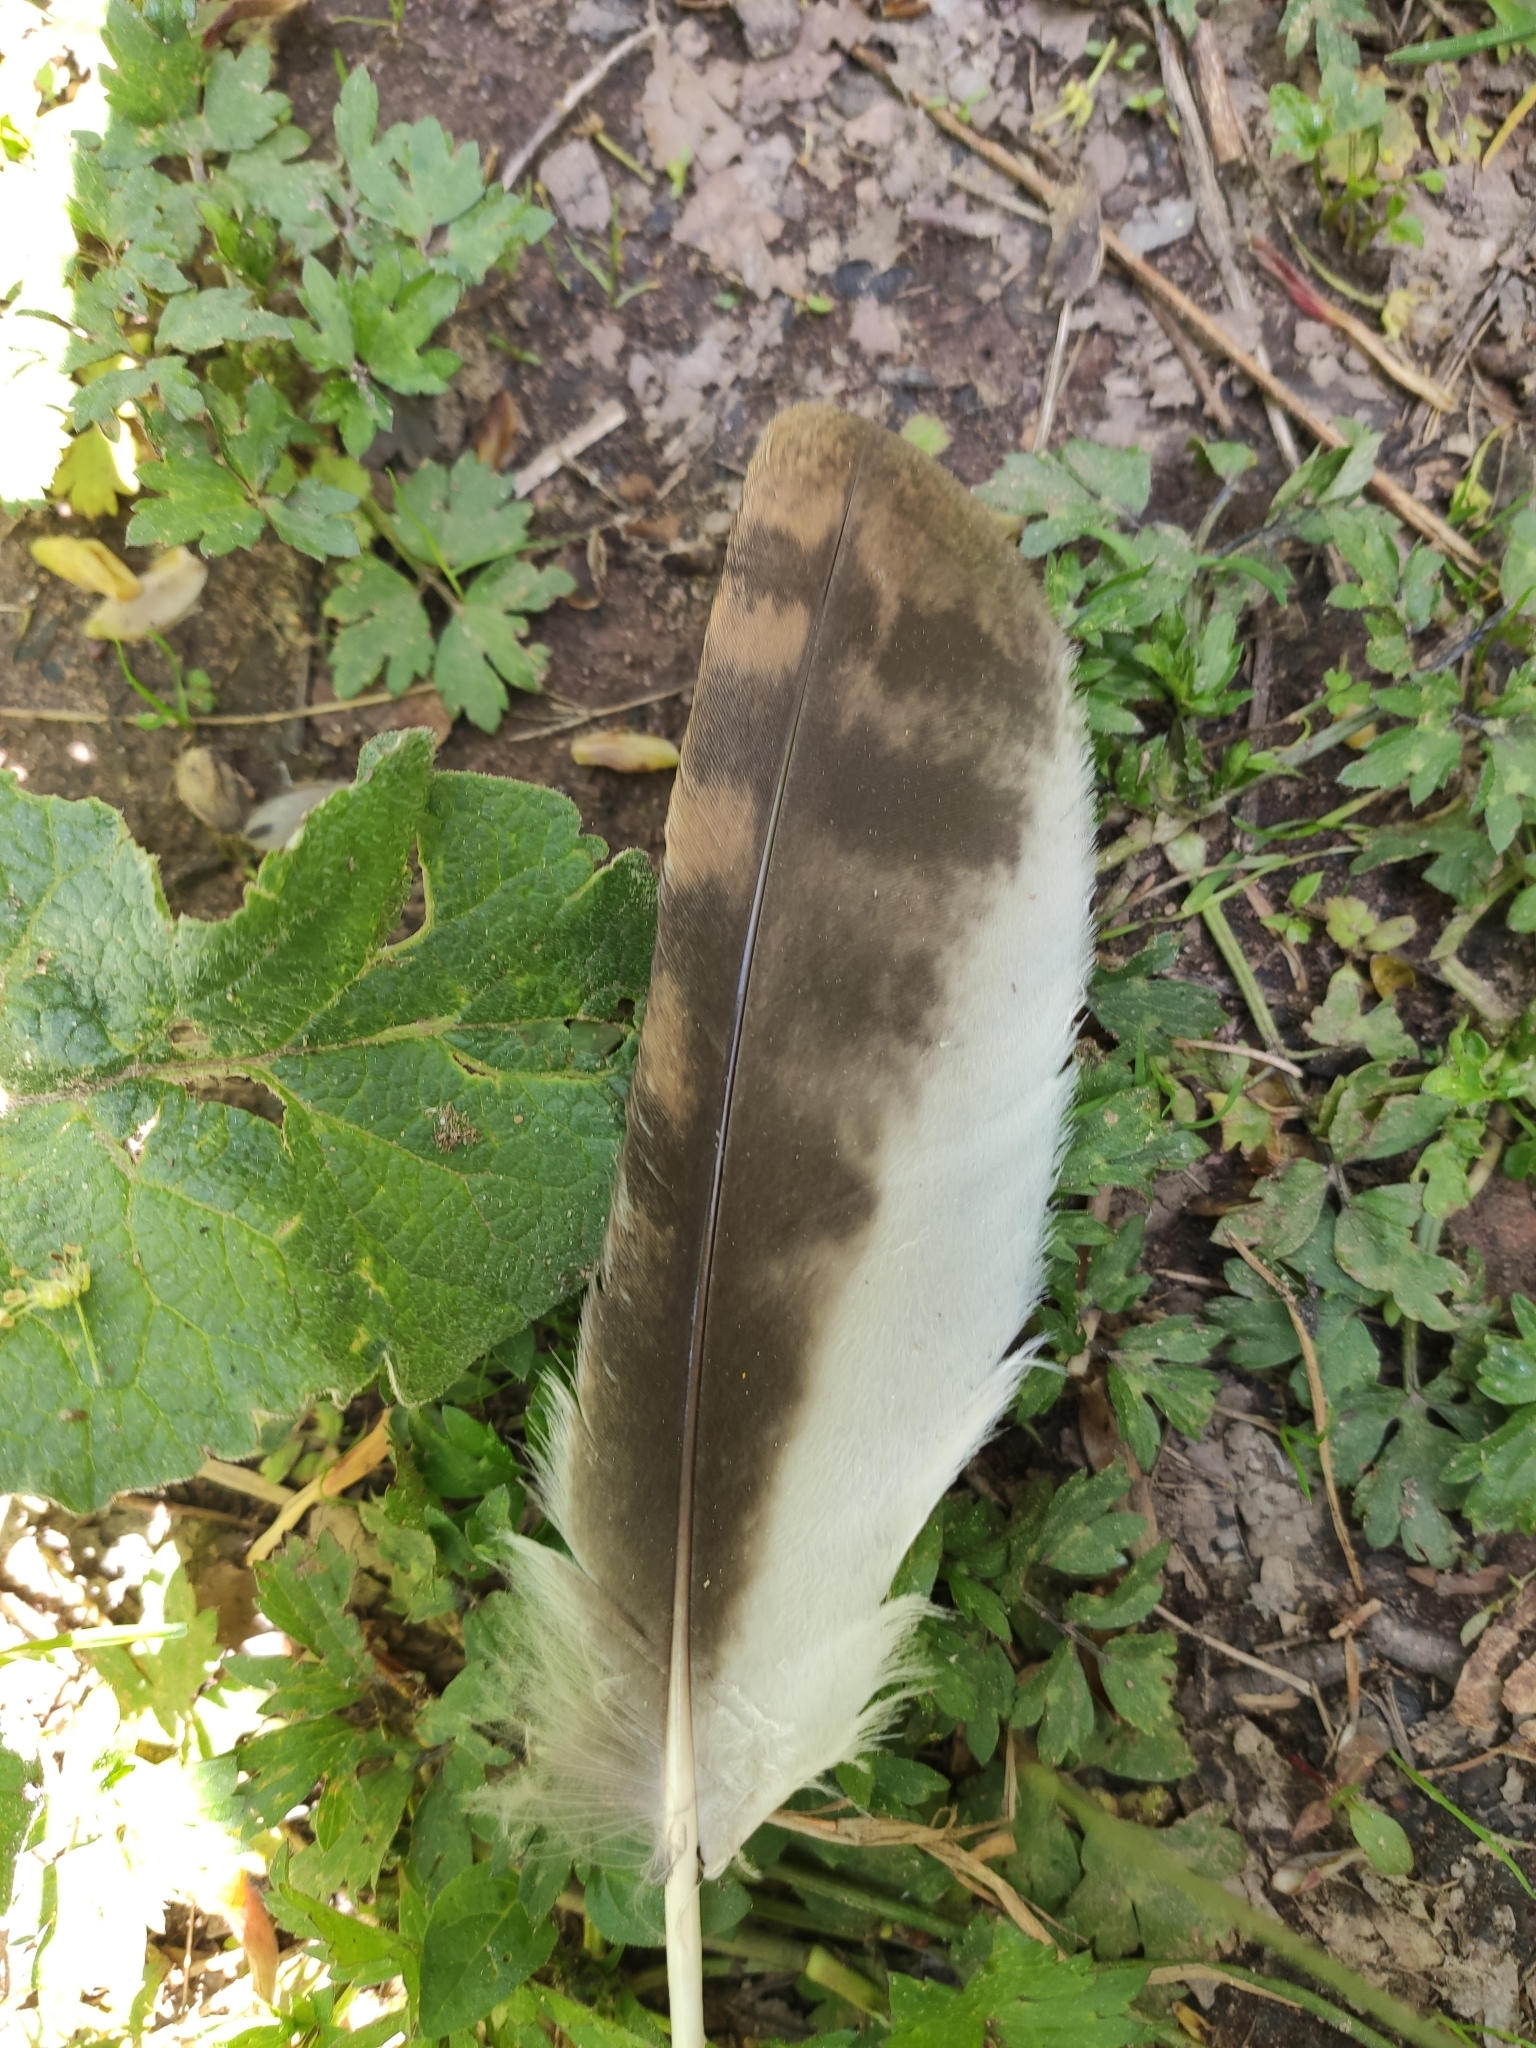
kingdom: Animalia
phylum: Chordata
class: Aves
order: Strigiformes
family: Strigidae
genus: Strix
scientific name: Strix aluco
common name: Tawny owl
